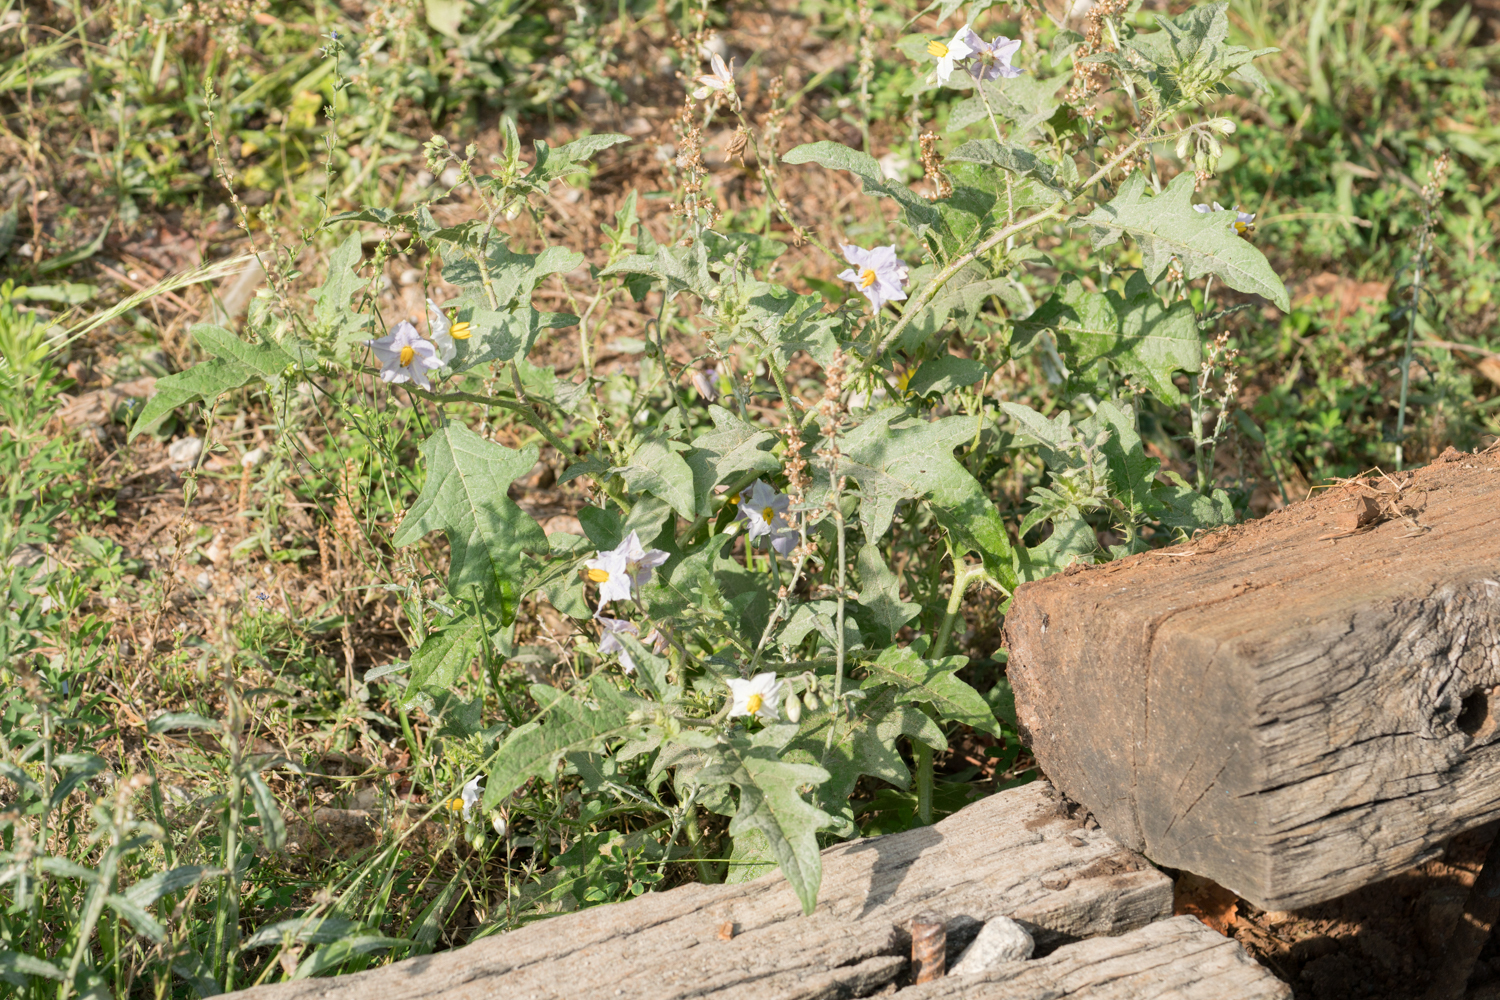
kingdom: Plantae
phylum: Tracheophyta
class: Magnoliopsida
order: Solanales
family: Solanaceae
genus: Solanum
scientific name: Solanum carolinense
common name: Horse-nettle
